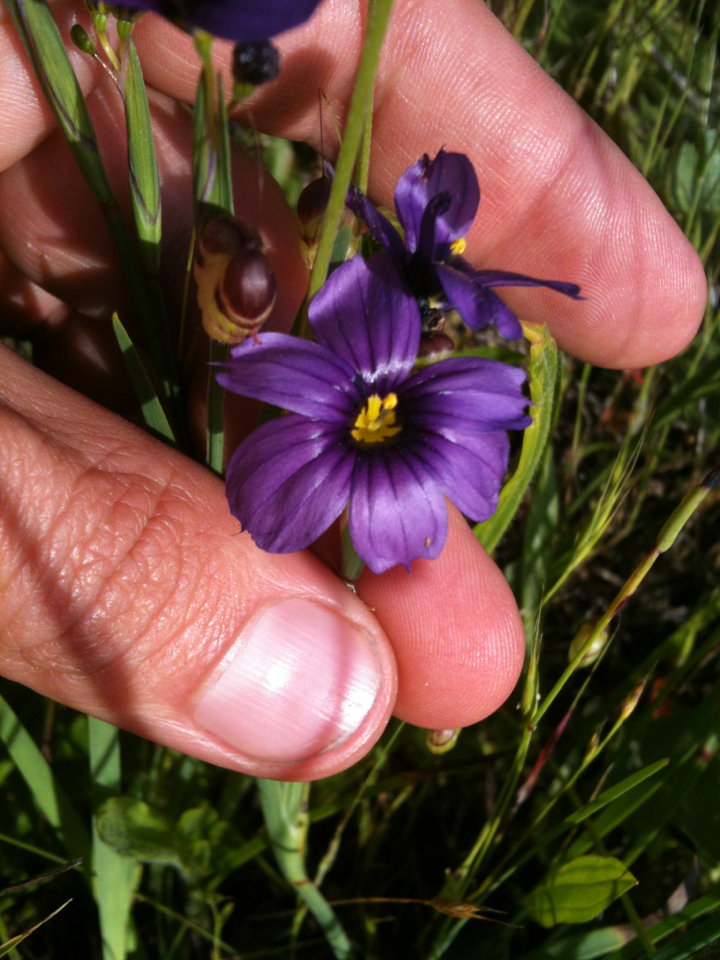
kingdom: Plantae
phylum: Tracheophyta
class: Liliopsida
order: Asparagales
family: Iridaceae
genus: Sisyrinchium
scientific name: Sisyrinchium bellum
